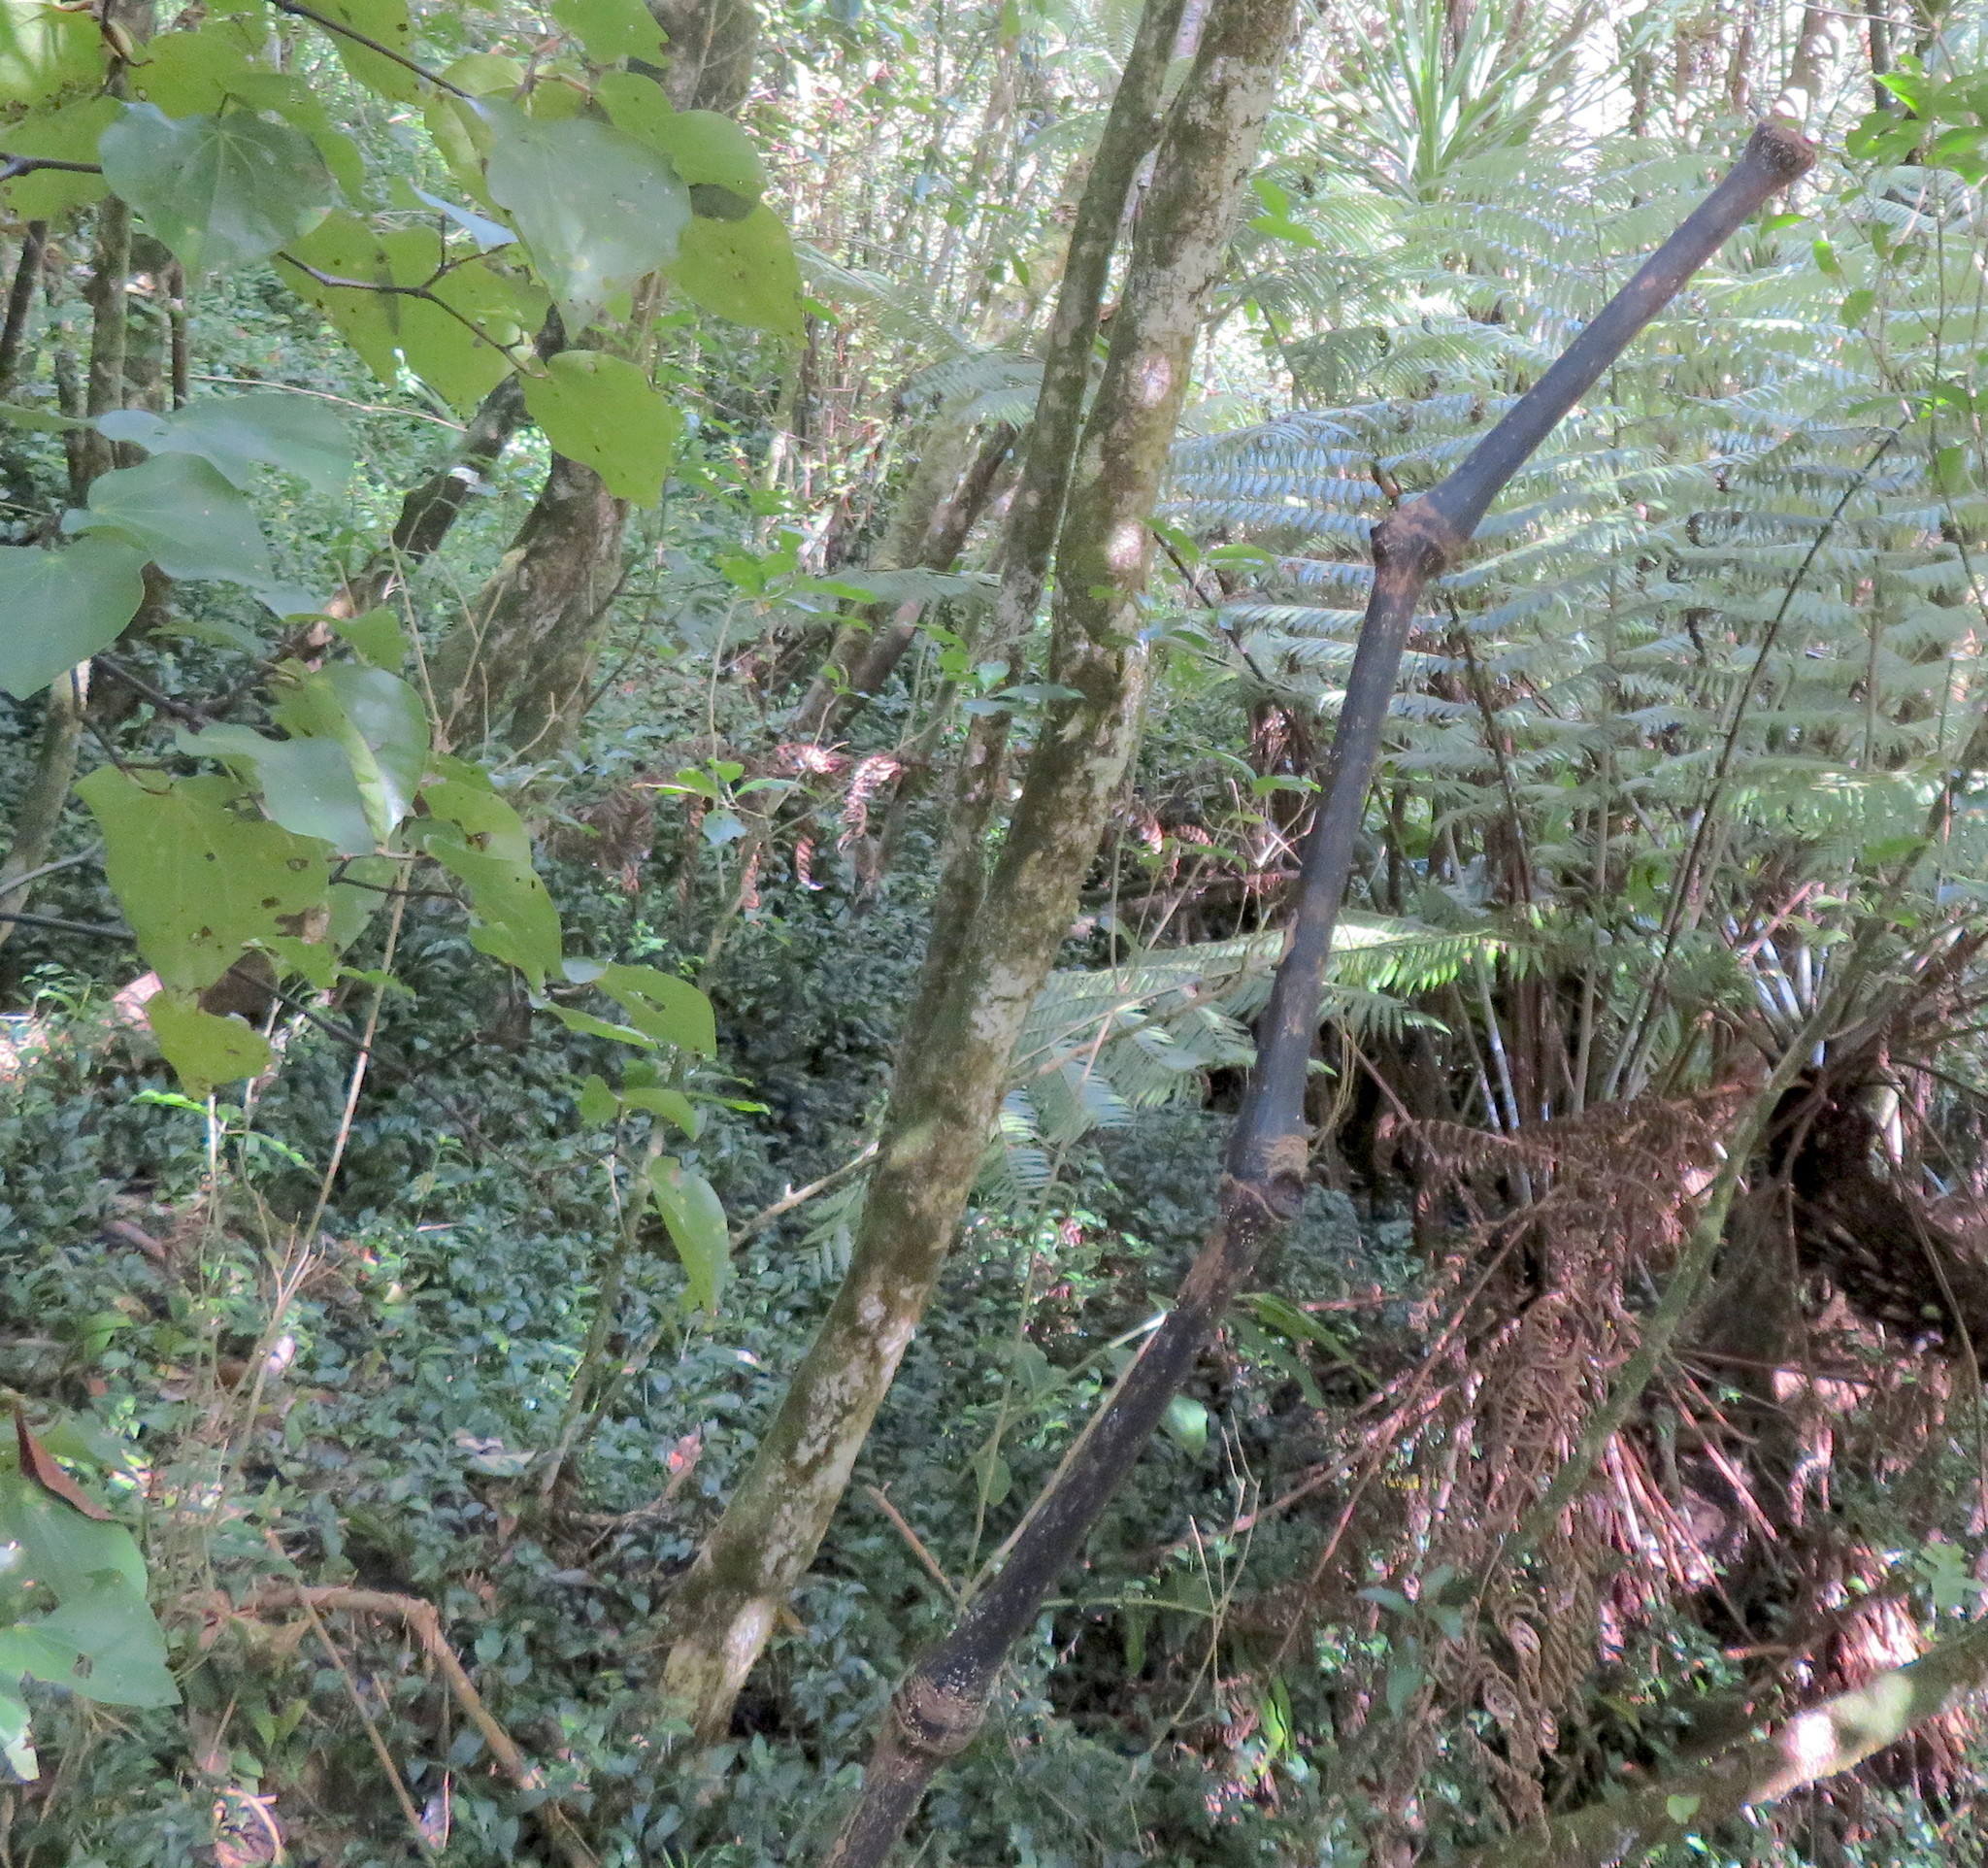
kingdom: Plantae
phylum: Tracheophyta
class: Magnoliopsida
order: Piperales
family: Piperaceae
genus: Macropiper
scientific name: Macropiper excelsum
